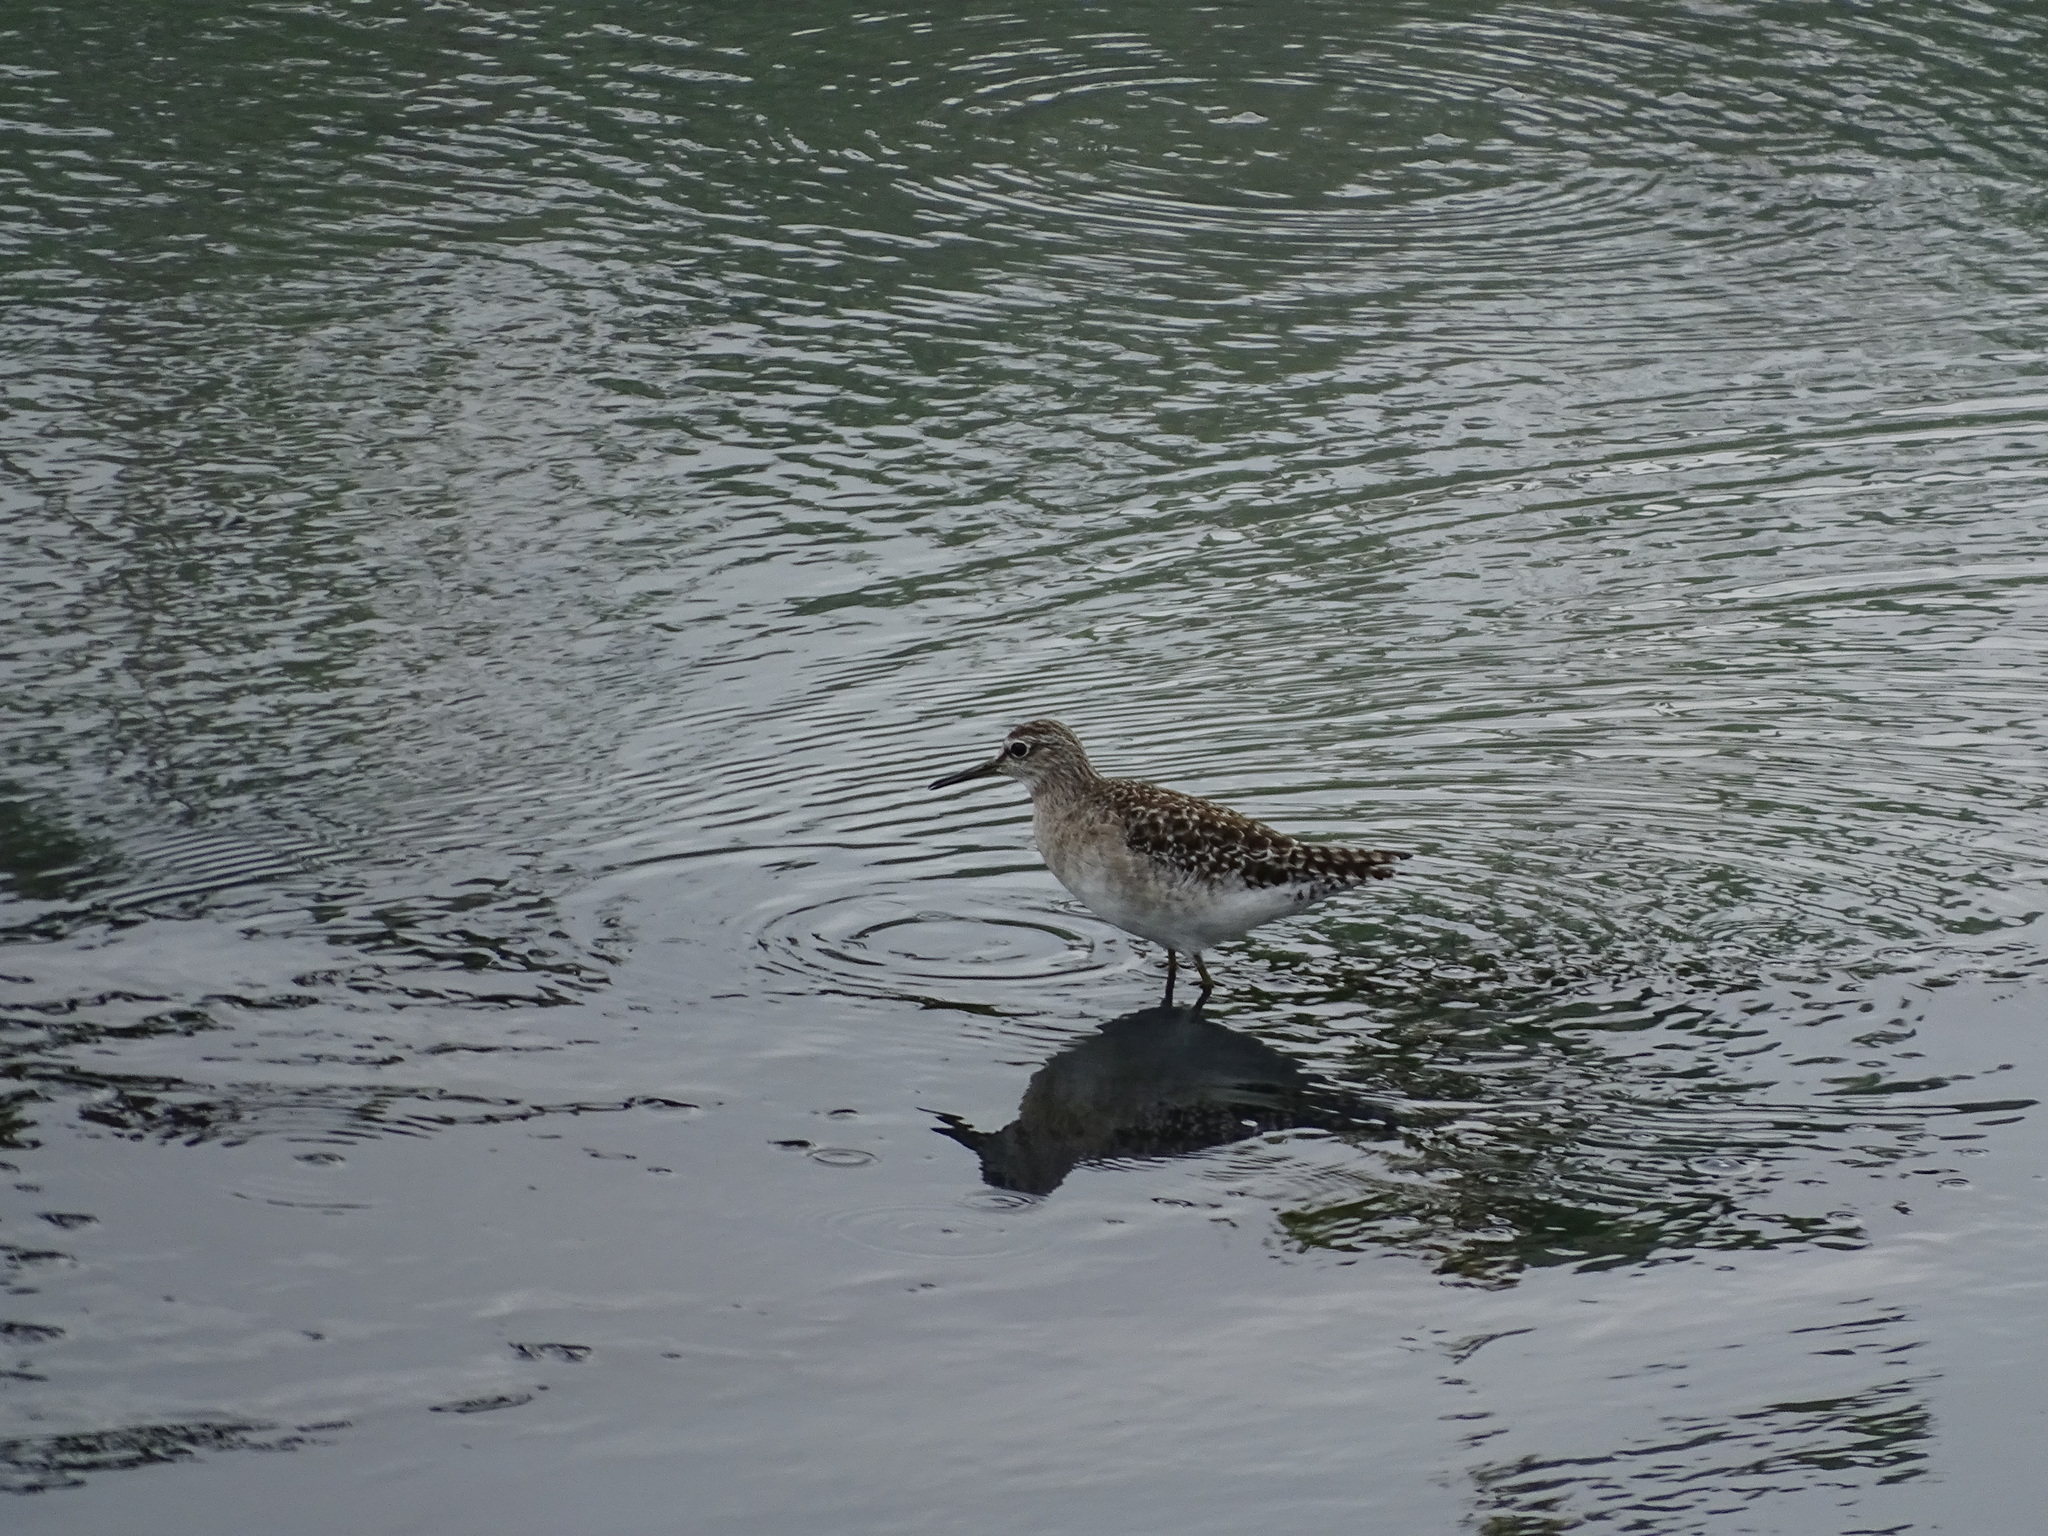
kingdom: Animalia
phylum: Chordata
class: Aves
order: Charadriiformes
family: Scolopacidae
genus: Tringa
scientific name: Tringa glareola
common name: Wood sandpiper
